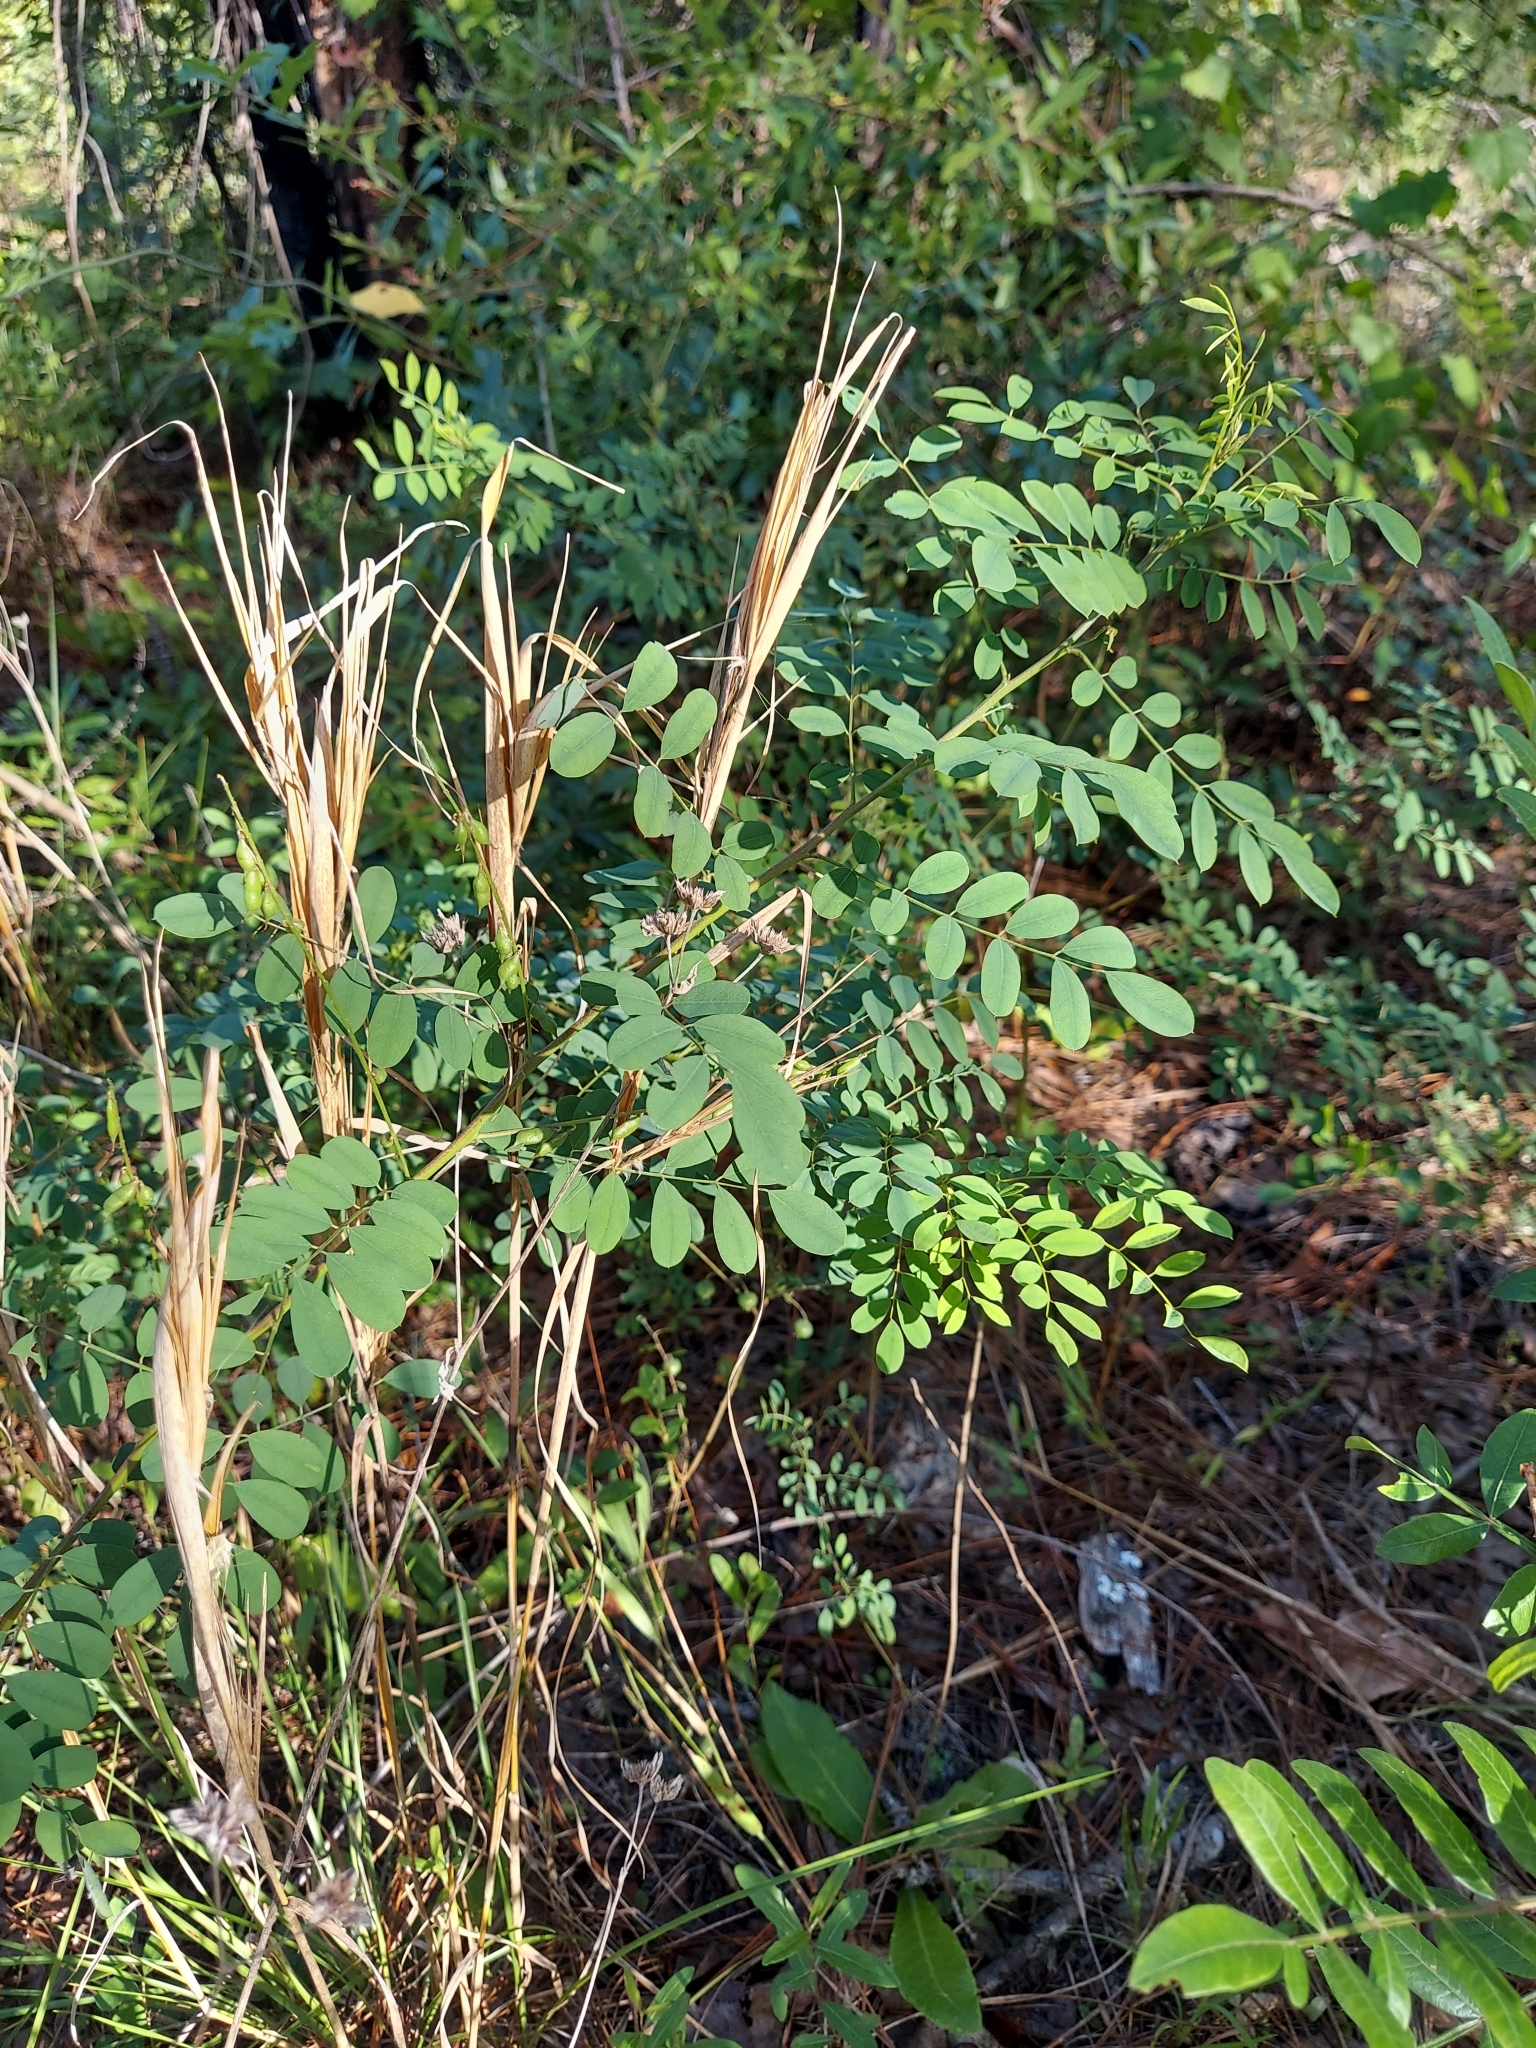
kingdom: Plantae
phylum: Tracheophyta
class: Magnoliopsida
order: Fabales
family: Fabaceae
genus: Indigofera
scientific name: Indigofera caroliniana
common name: Wild indigo
